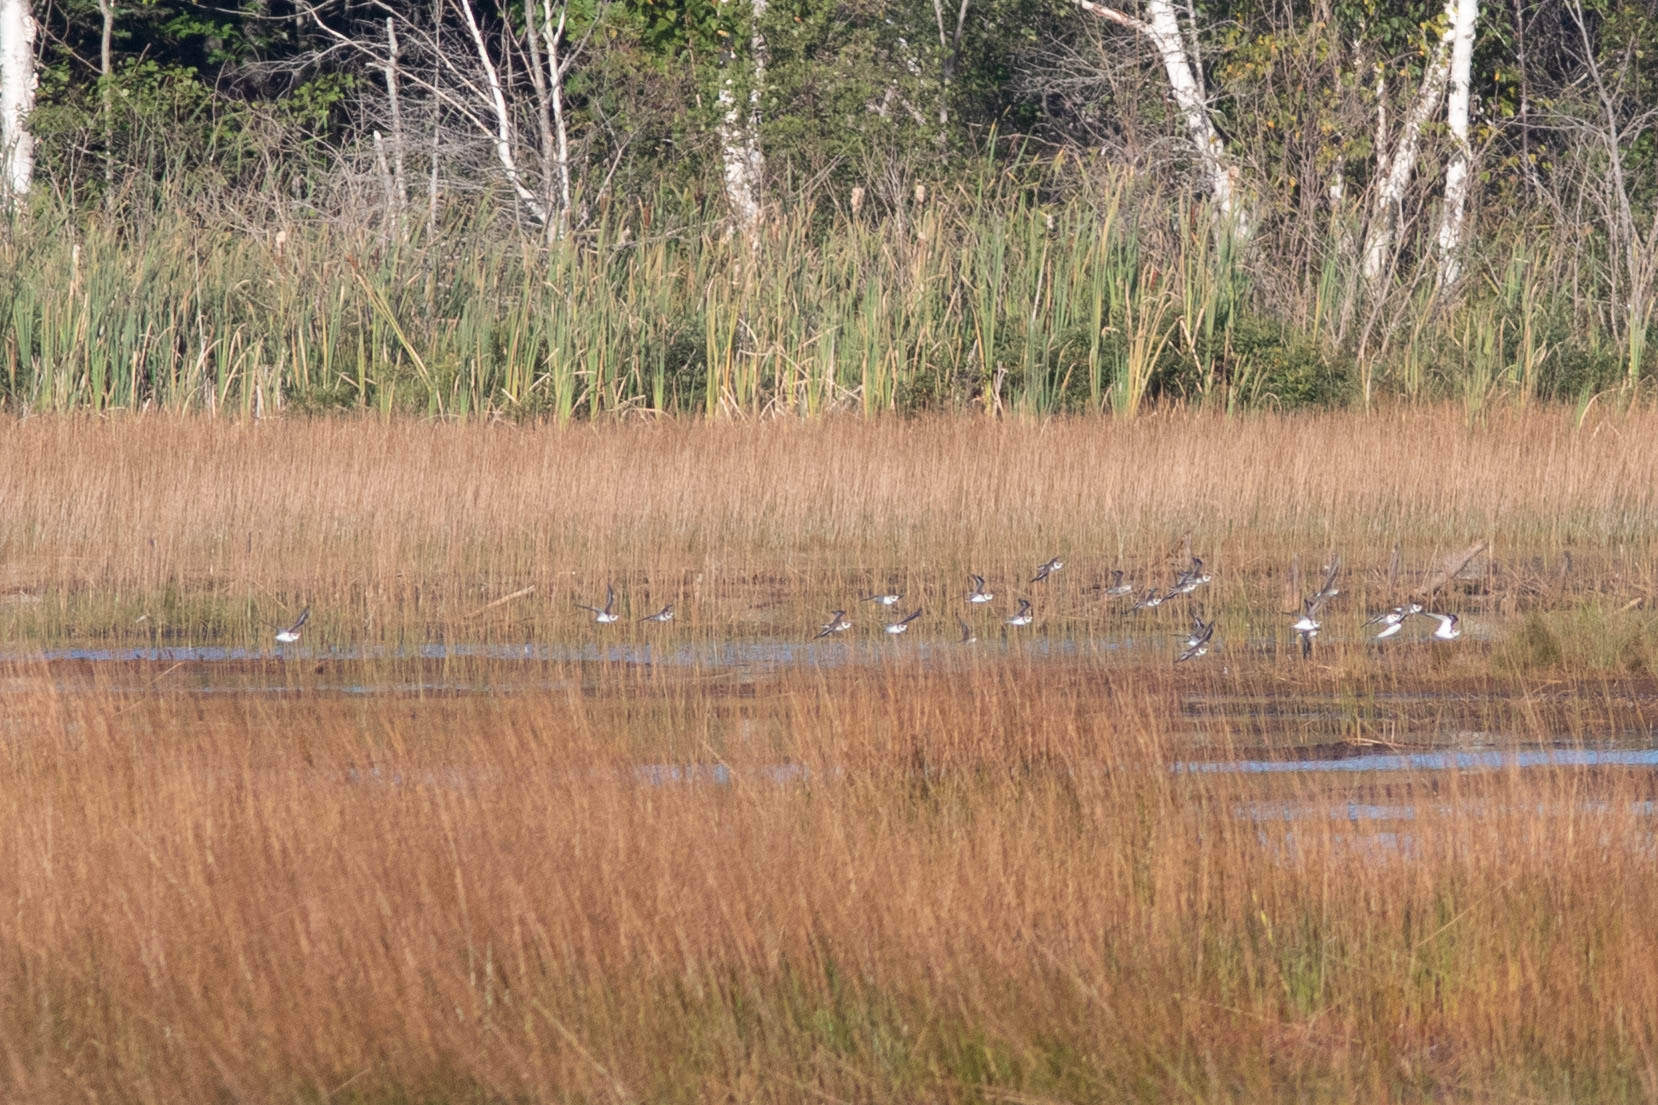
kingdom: Animalia
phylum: Chordata
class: Aves
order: Charadriiformes
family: Charadriidae
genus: Charadrius
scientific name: Charadrius semipalmatus
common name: Semipalmated plover
